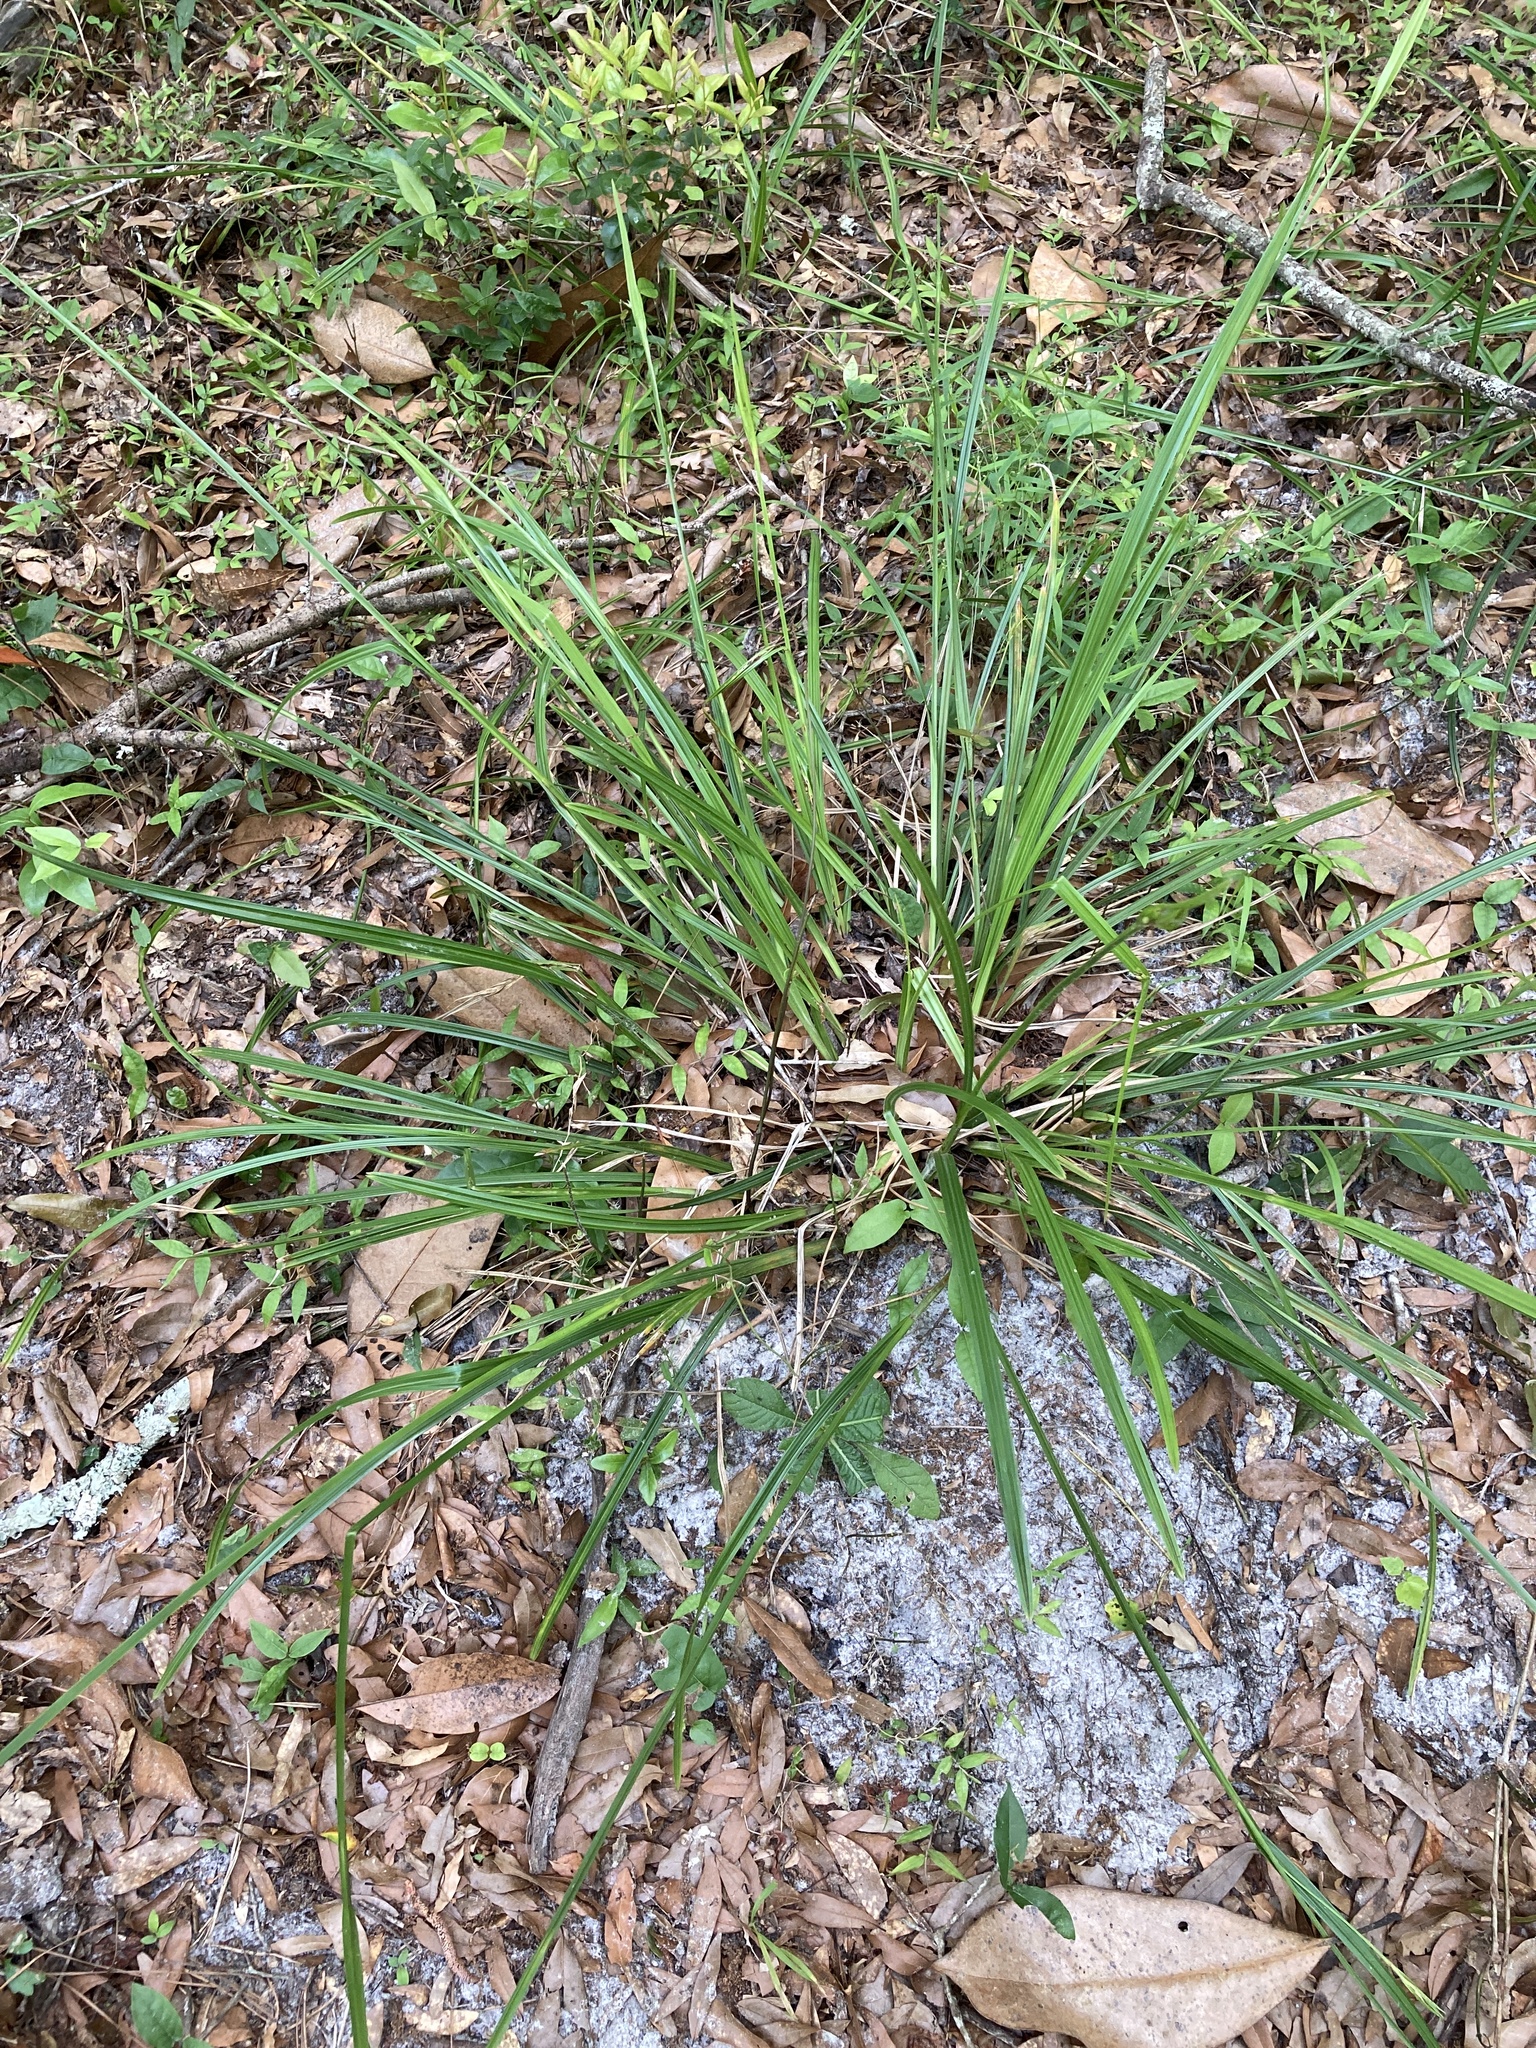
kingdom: Plantae
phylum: Tracheophyta
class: Liliopsida
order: Poales
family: Cyperaceae
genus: Scleria
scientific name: Scleria triglomerata
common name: Whip nutrush
